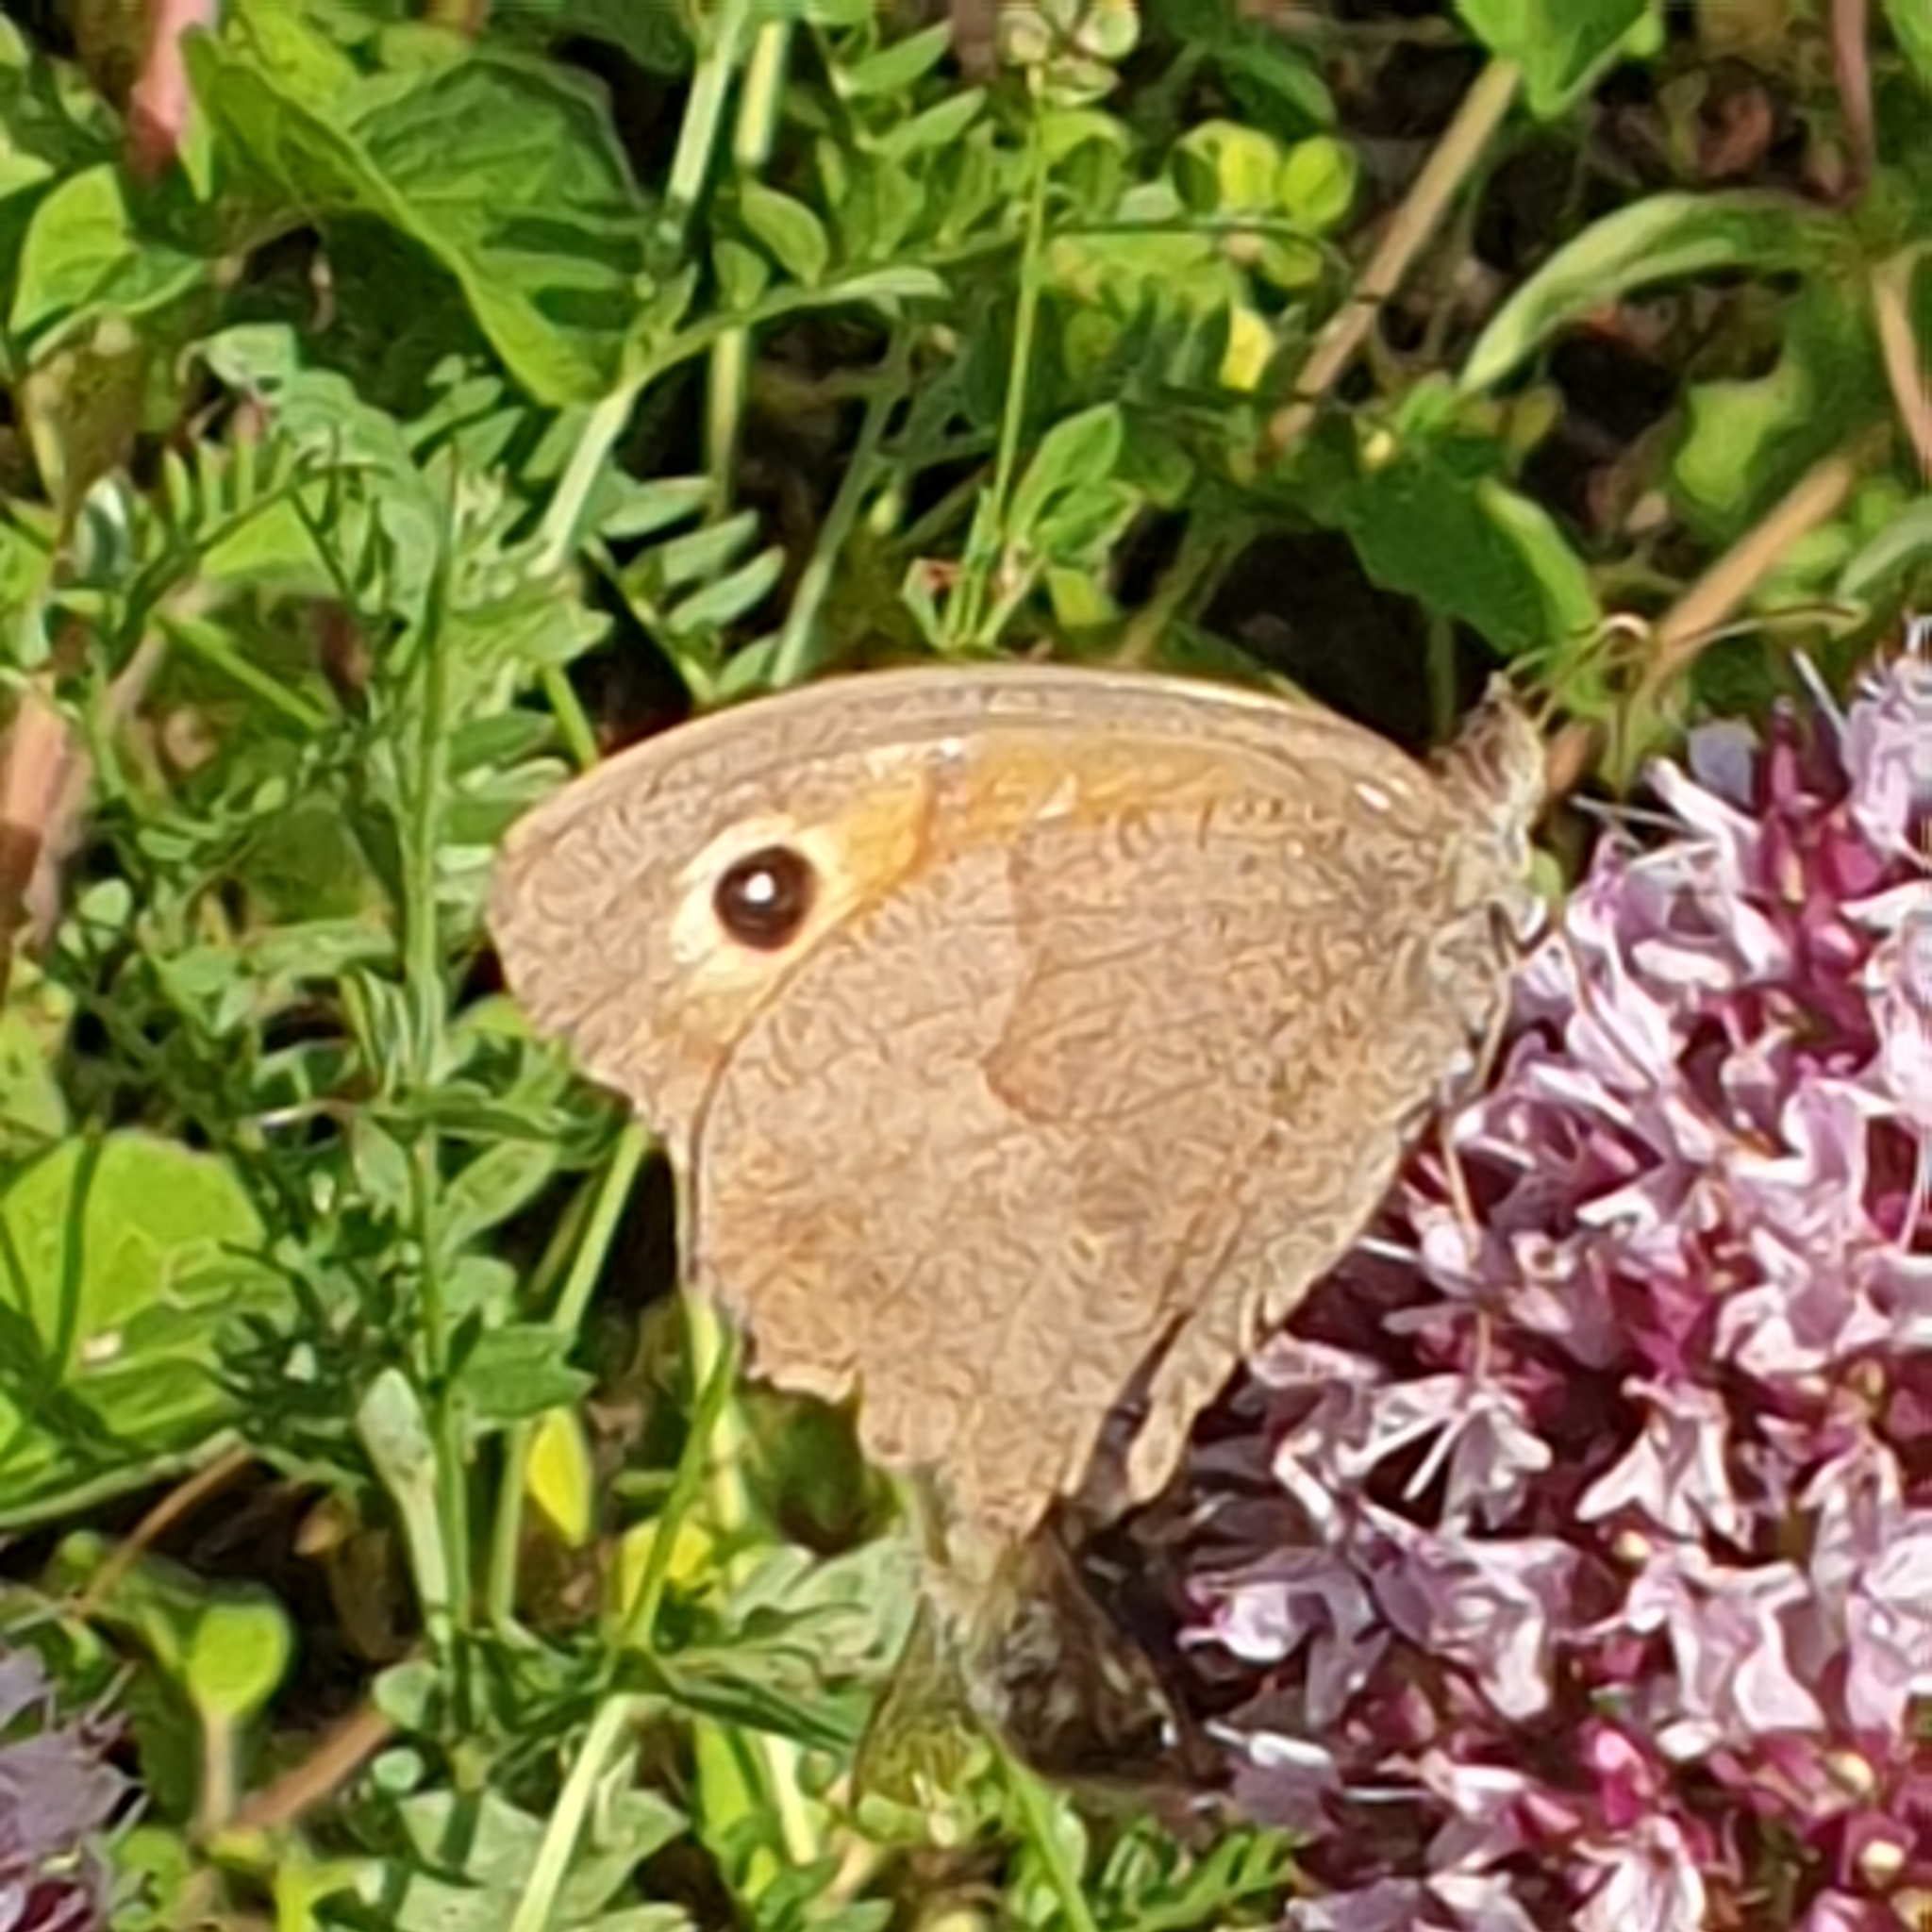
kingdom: Animalia
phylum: Arthropoda
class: Insecta
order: Lepidoptera
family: Nymphalidae
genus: Maniola
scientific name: Maniola jurtina
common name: Meadow brown
